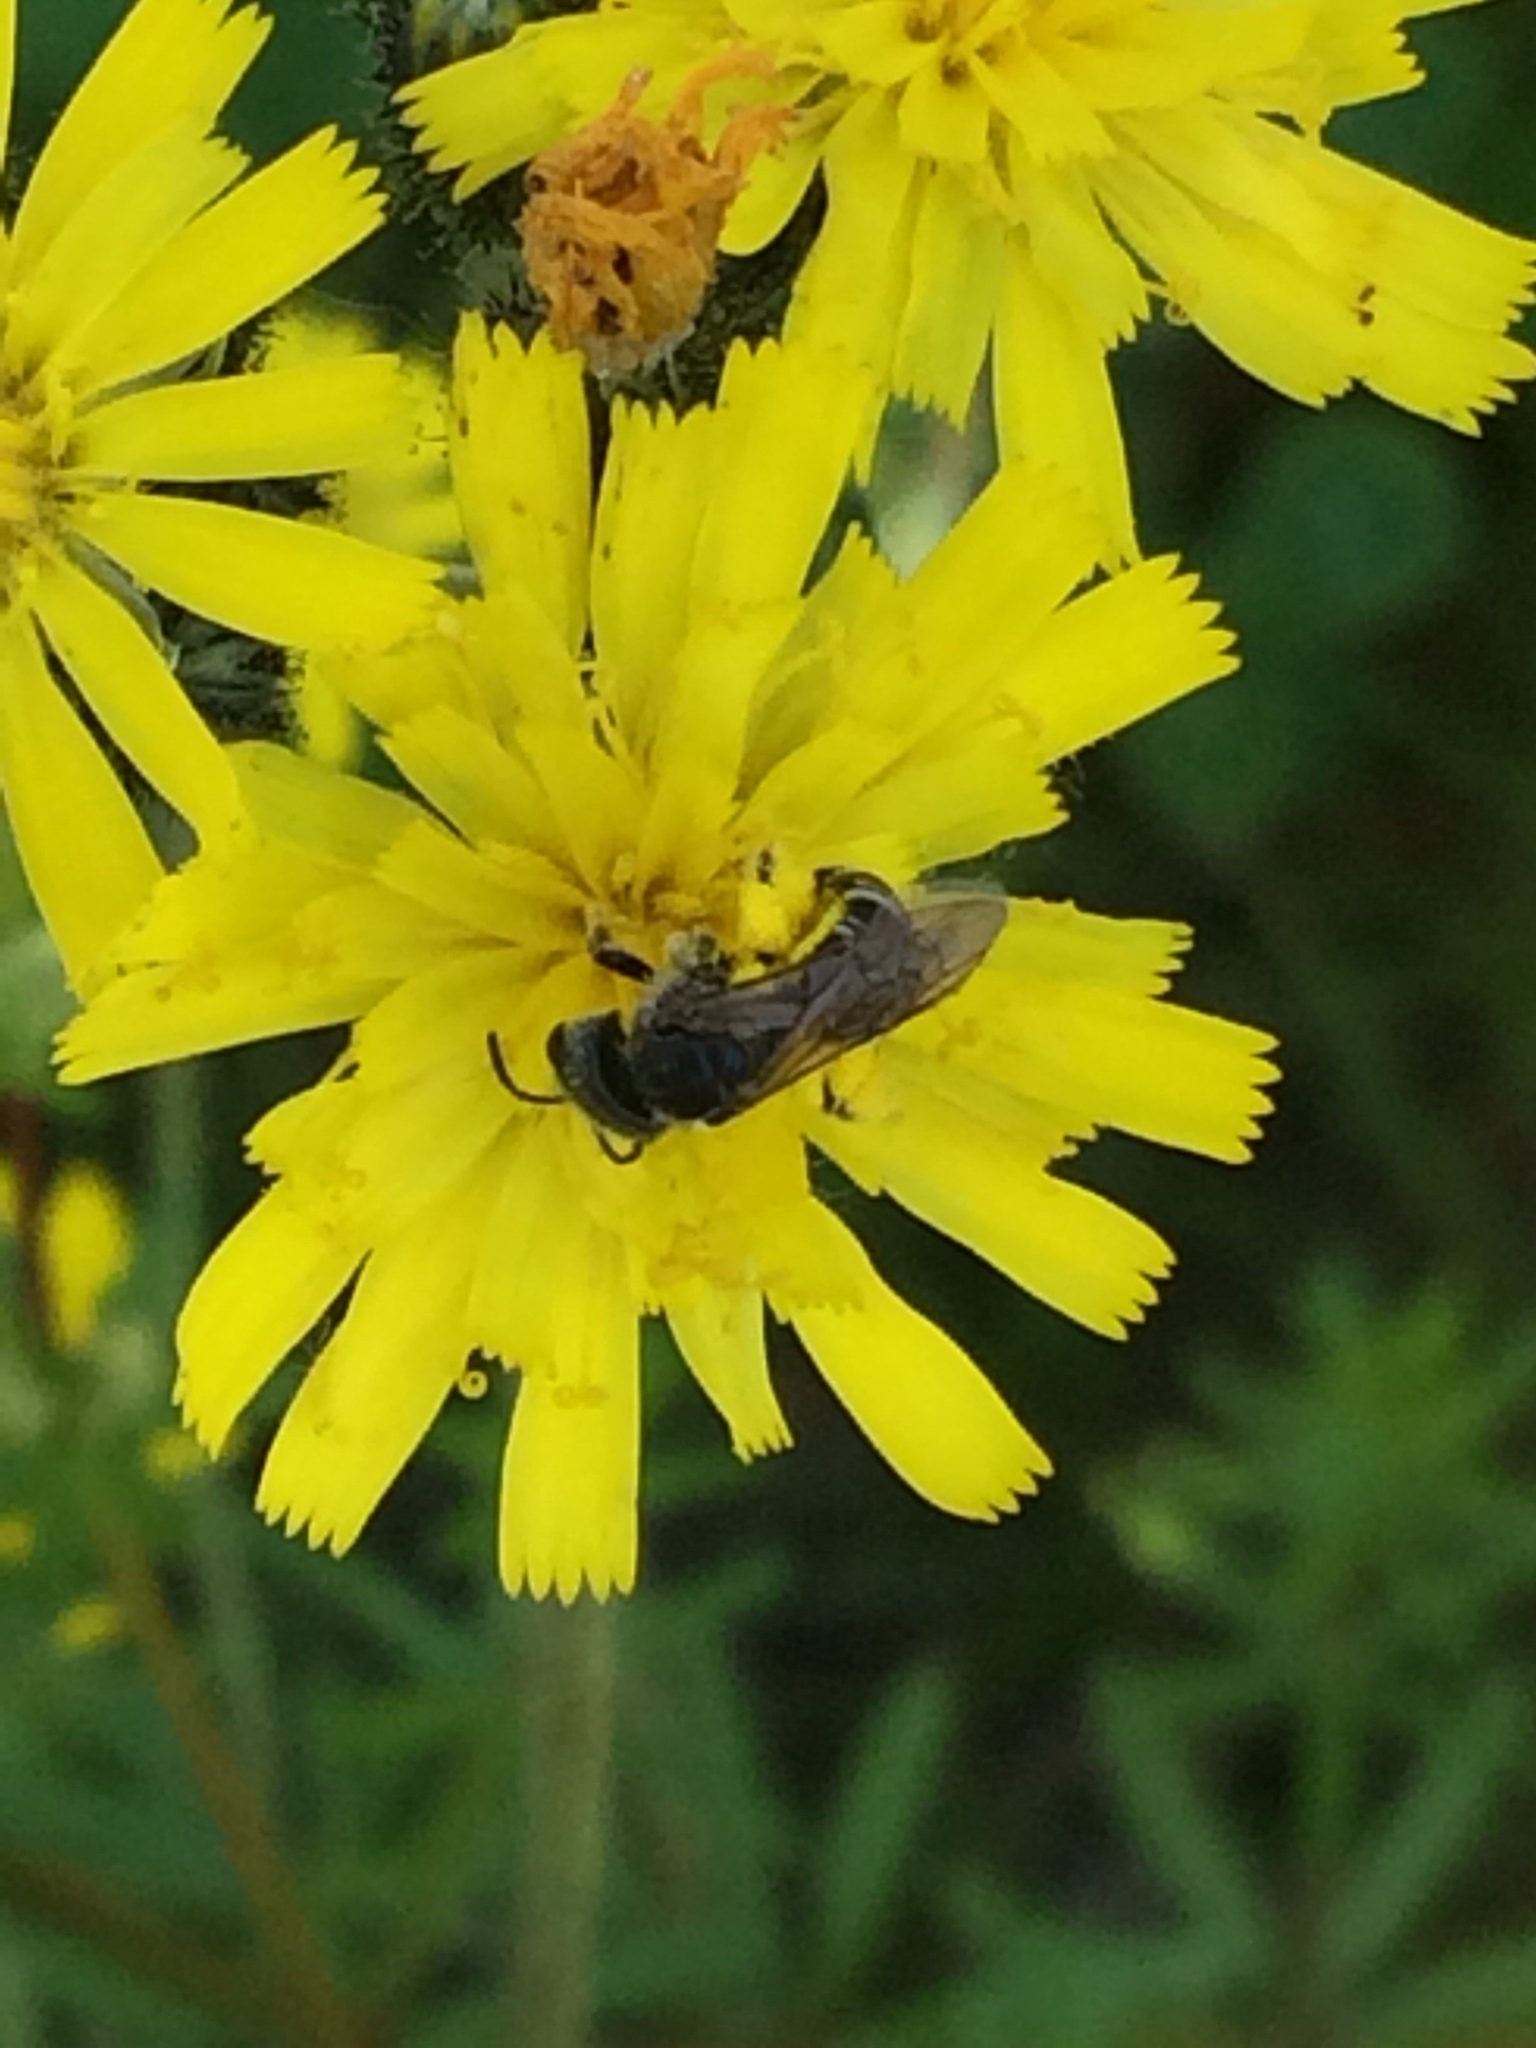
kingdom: Animalia
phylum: Arthropoda
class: Insecta
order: Hymenoptera
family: Halictidae
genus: Halictus
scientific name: Halictus ligatus
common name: Ligated furrow bee
